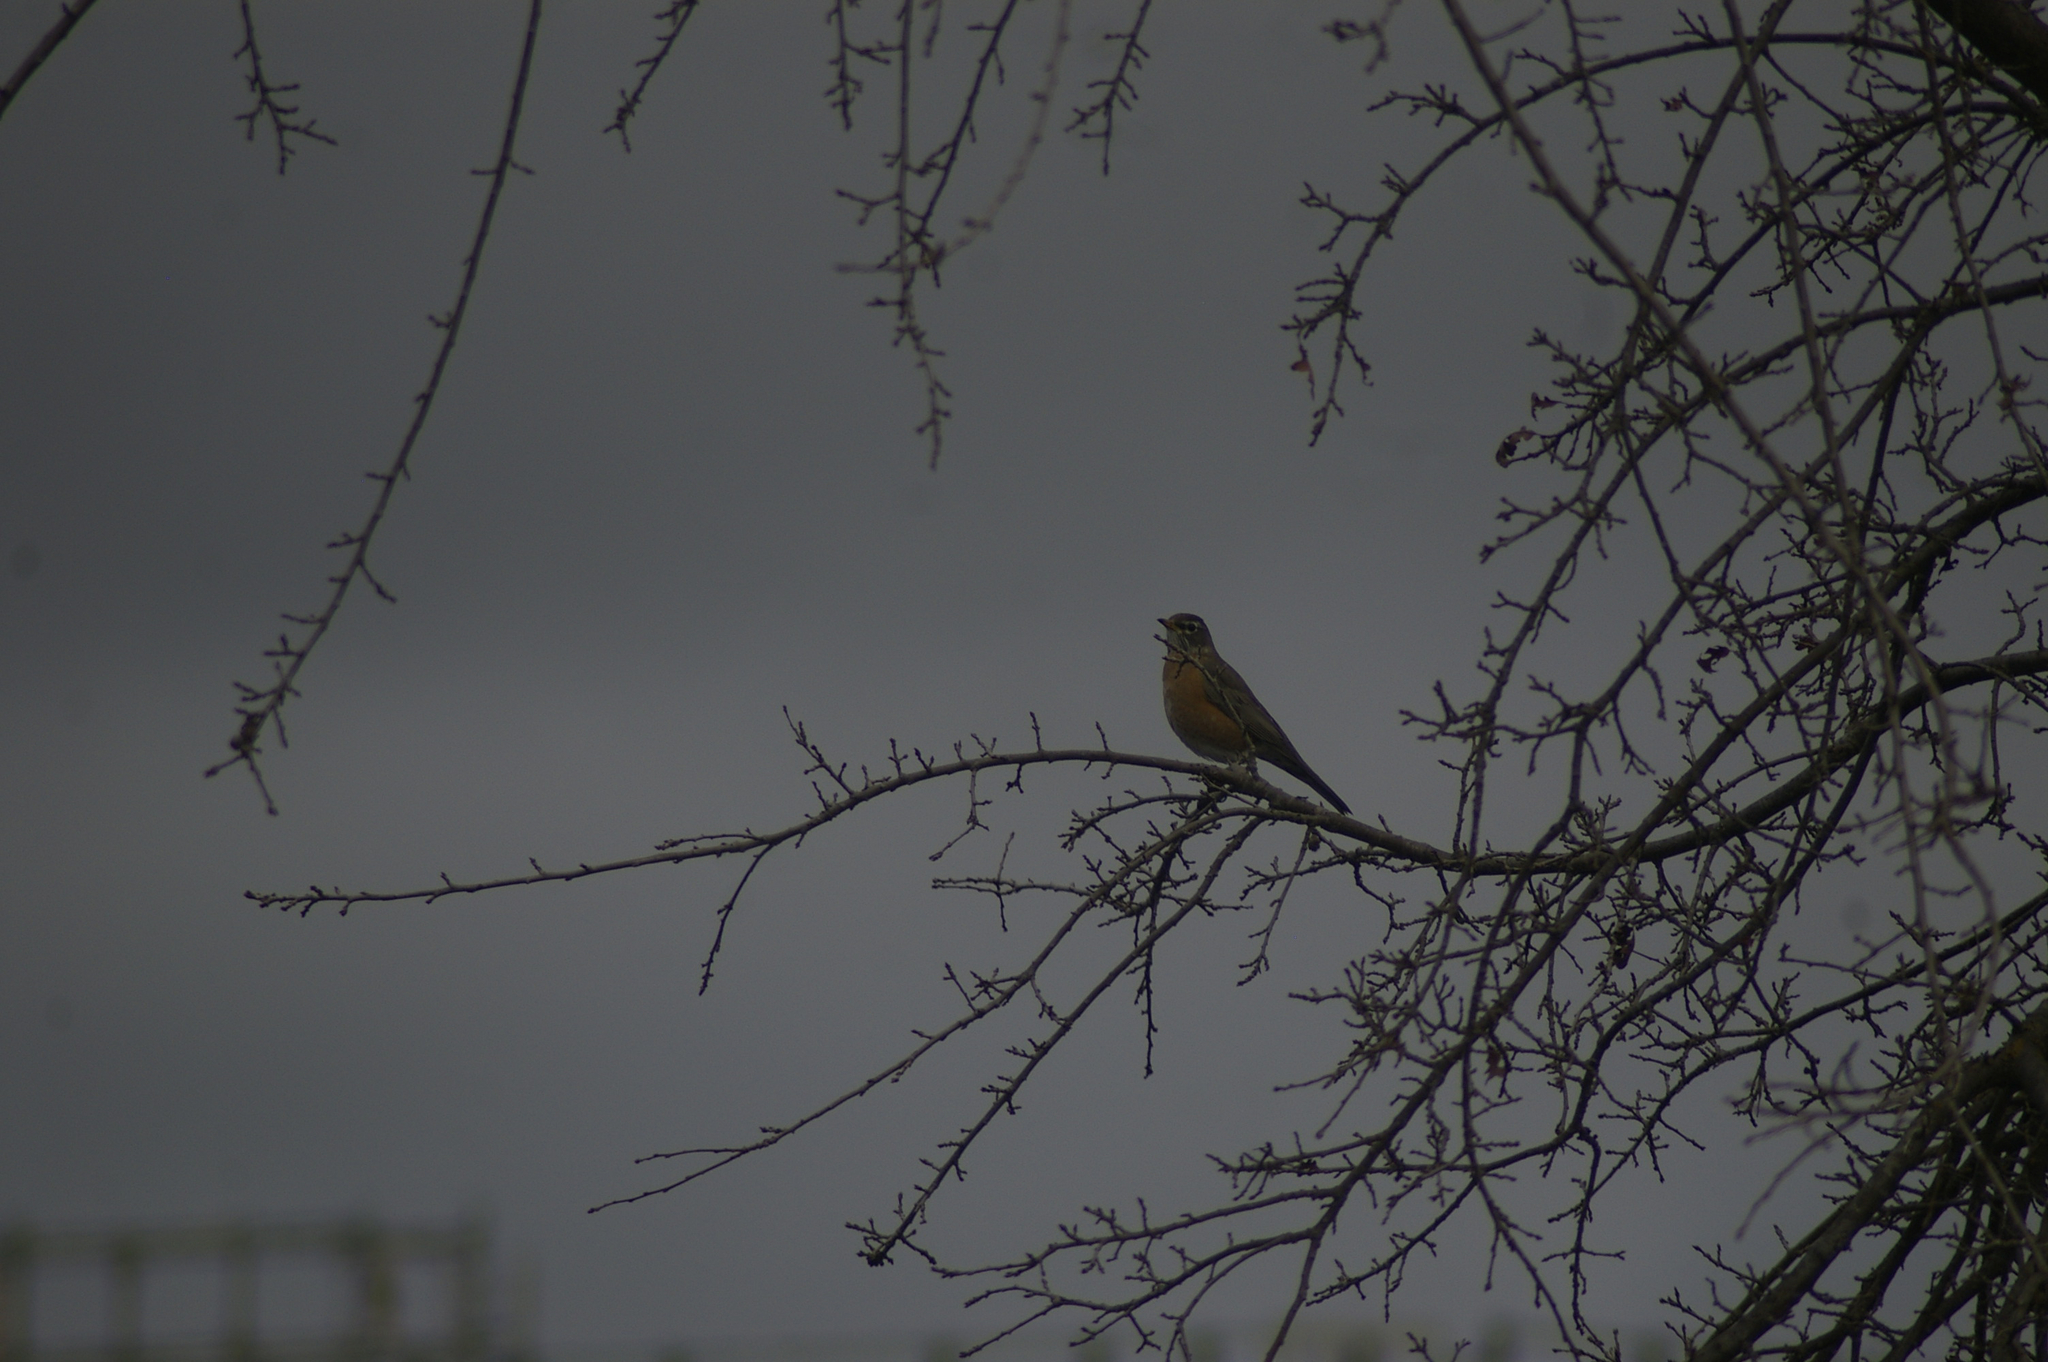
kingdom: Animalia
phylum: Chordata
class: Aves
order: Passeriformes
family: Turdidae
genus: Turdus
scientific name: Turdus migratorius
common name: American robin
